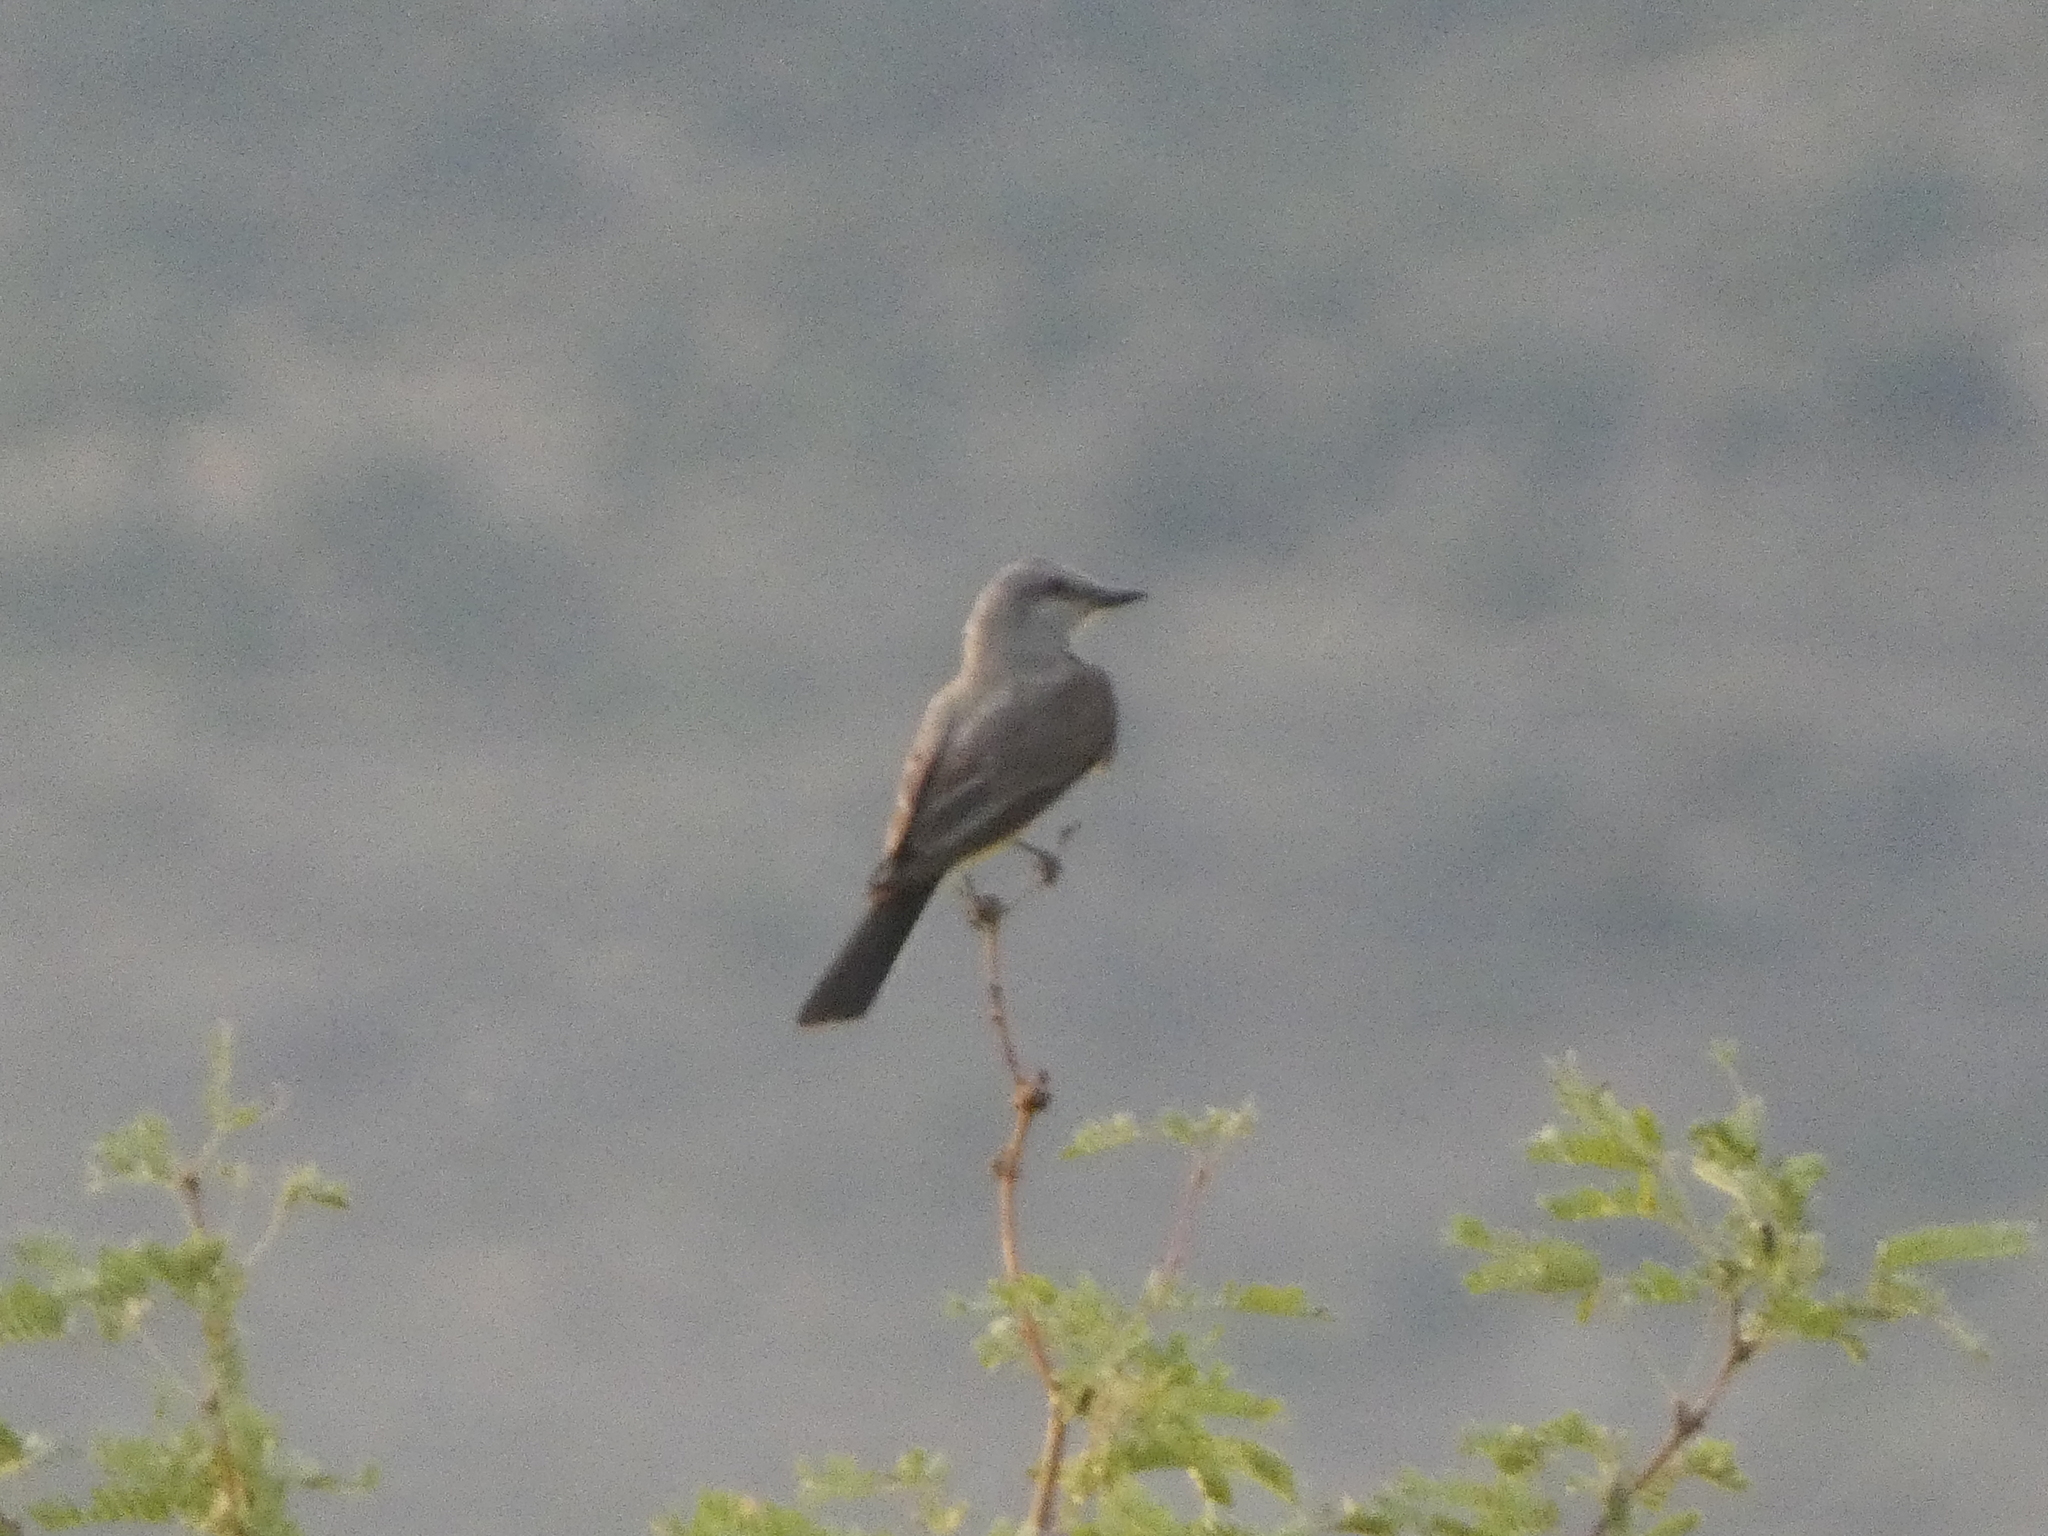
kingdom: Animalia
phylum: Chordata
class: Aves
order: Passeriformes
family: Tyrannidae
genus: Tyrannus
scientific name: Tyrannus verticalis
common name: Western kingbird
